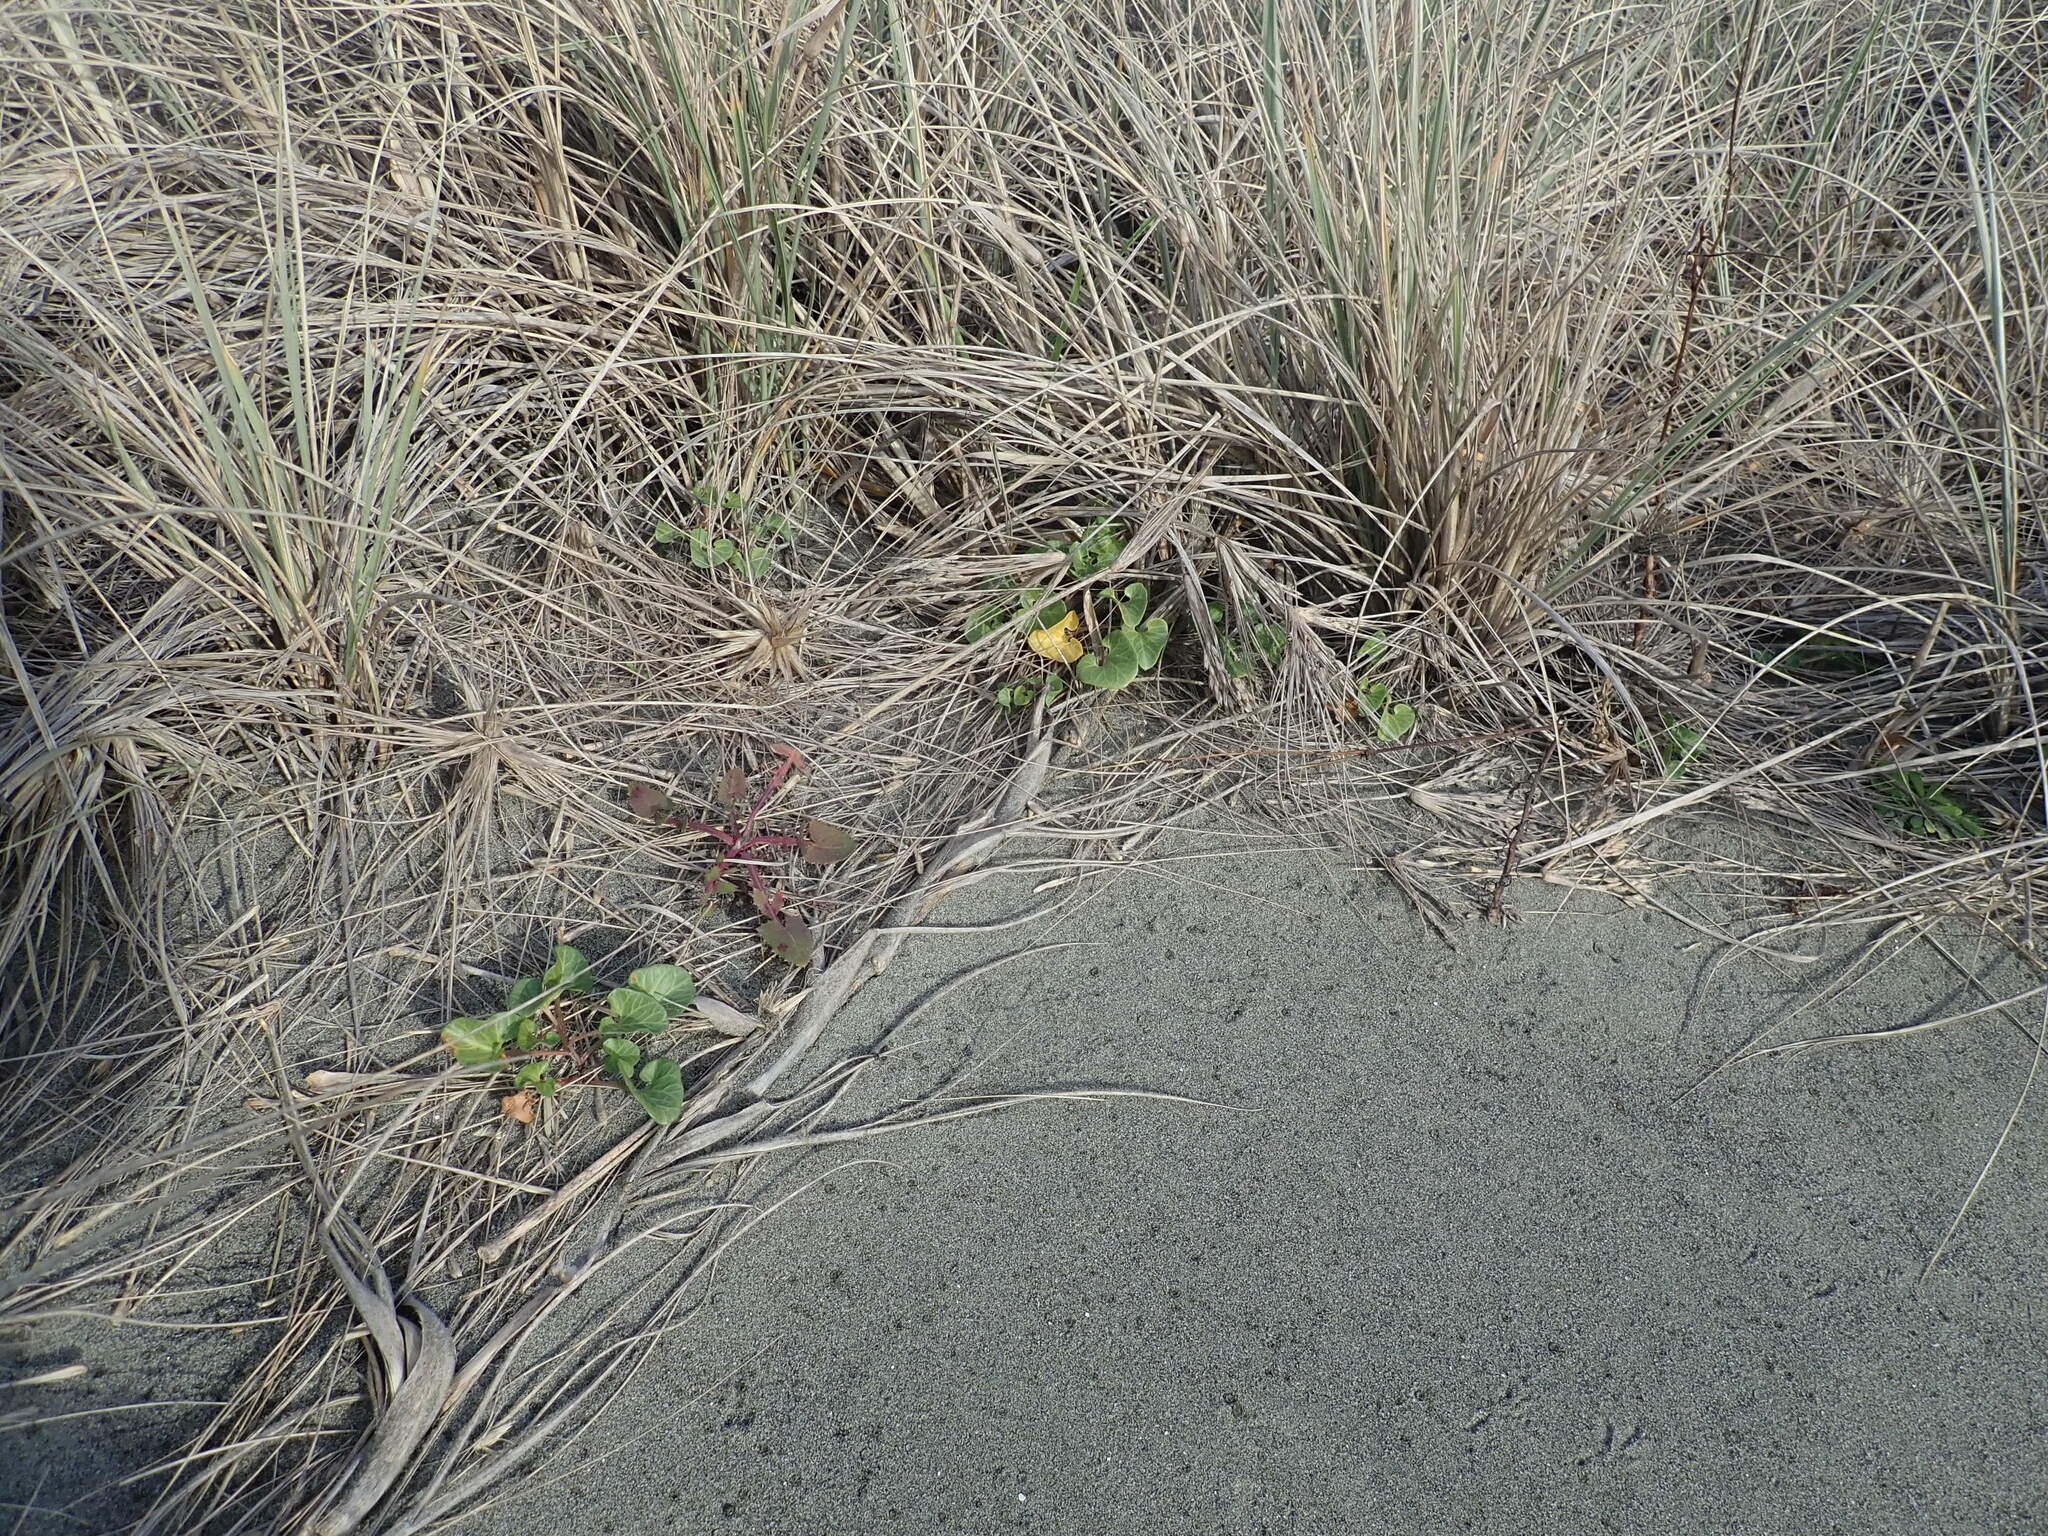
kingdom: Plantae
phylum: Tracheophyta
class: Magnoliopsida
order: Asterales
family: Asteraceae
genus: Sonchus
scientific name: Sonchus oleraceus
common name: Common sowthistle
